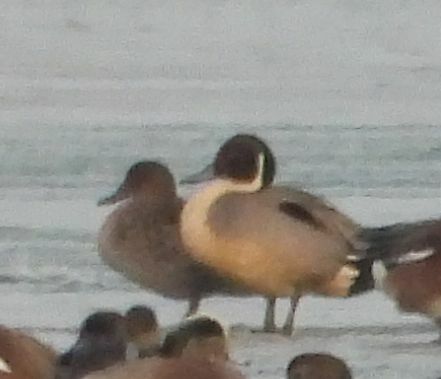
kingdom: Animalia
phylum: Chordata
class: Aves
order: Anseriformes
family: Anatidae
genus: Anas
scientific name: Anas acuta
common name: Northern pintail
